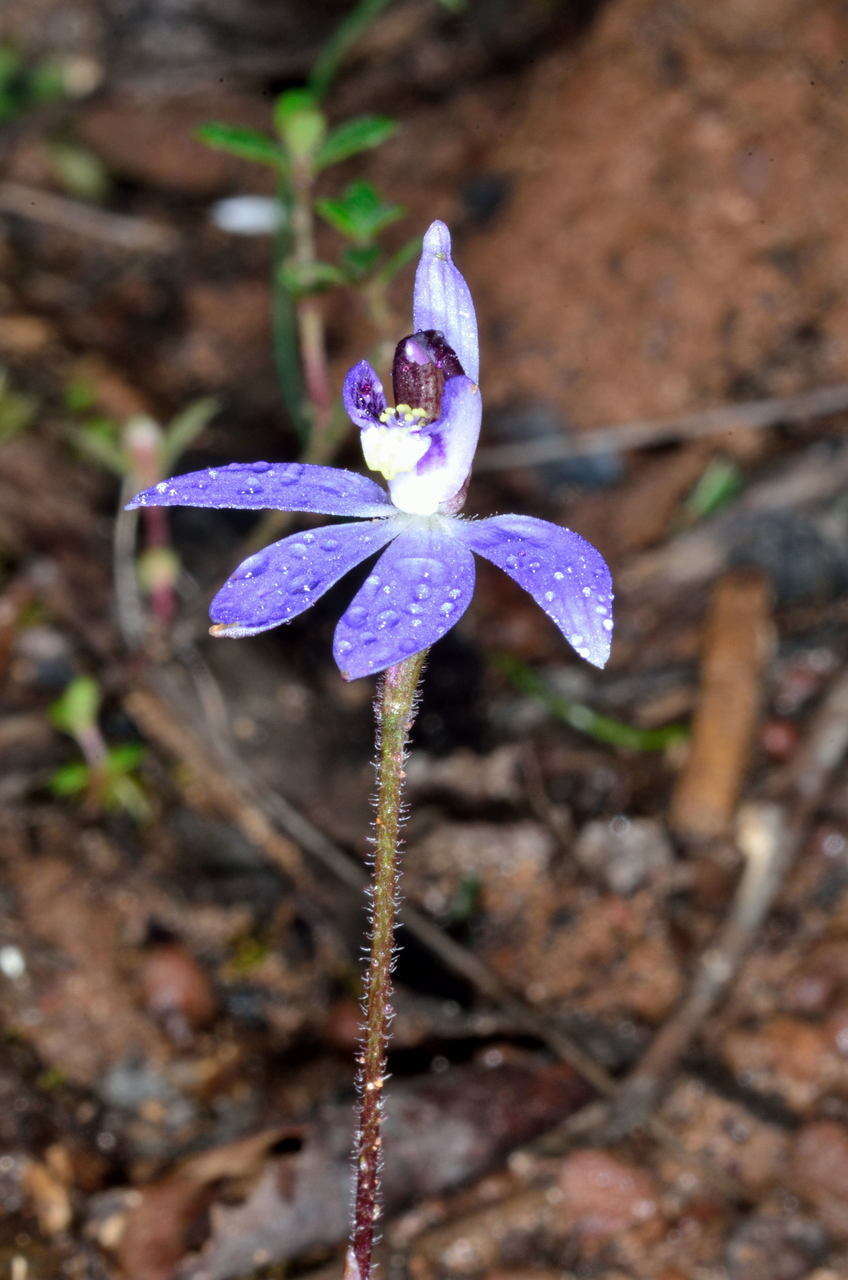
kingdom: Plantae
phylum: Tracheophyta
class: Liliopsida
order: Asparagales
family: Orchidaceae
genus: Caladenia
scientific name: Caladenia caerulea
